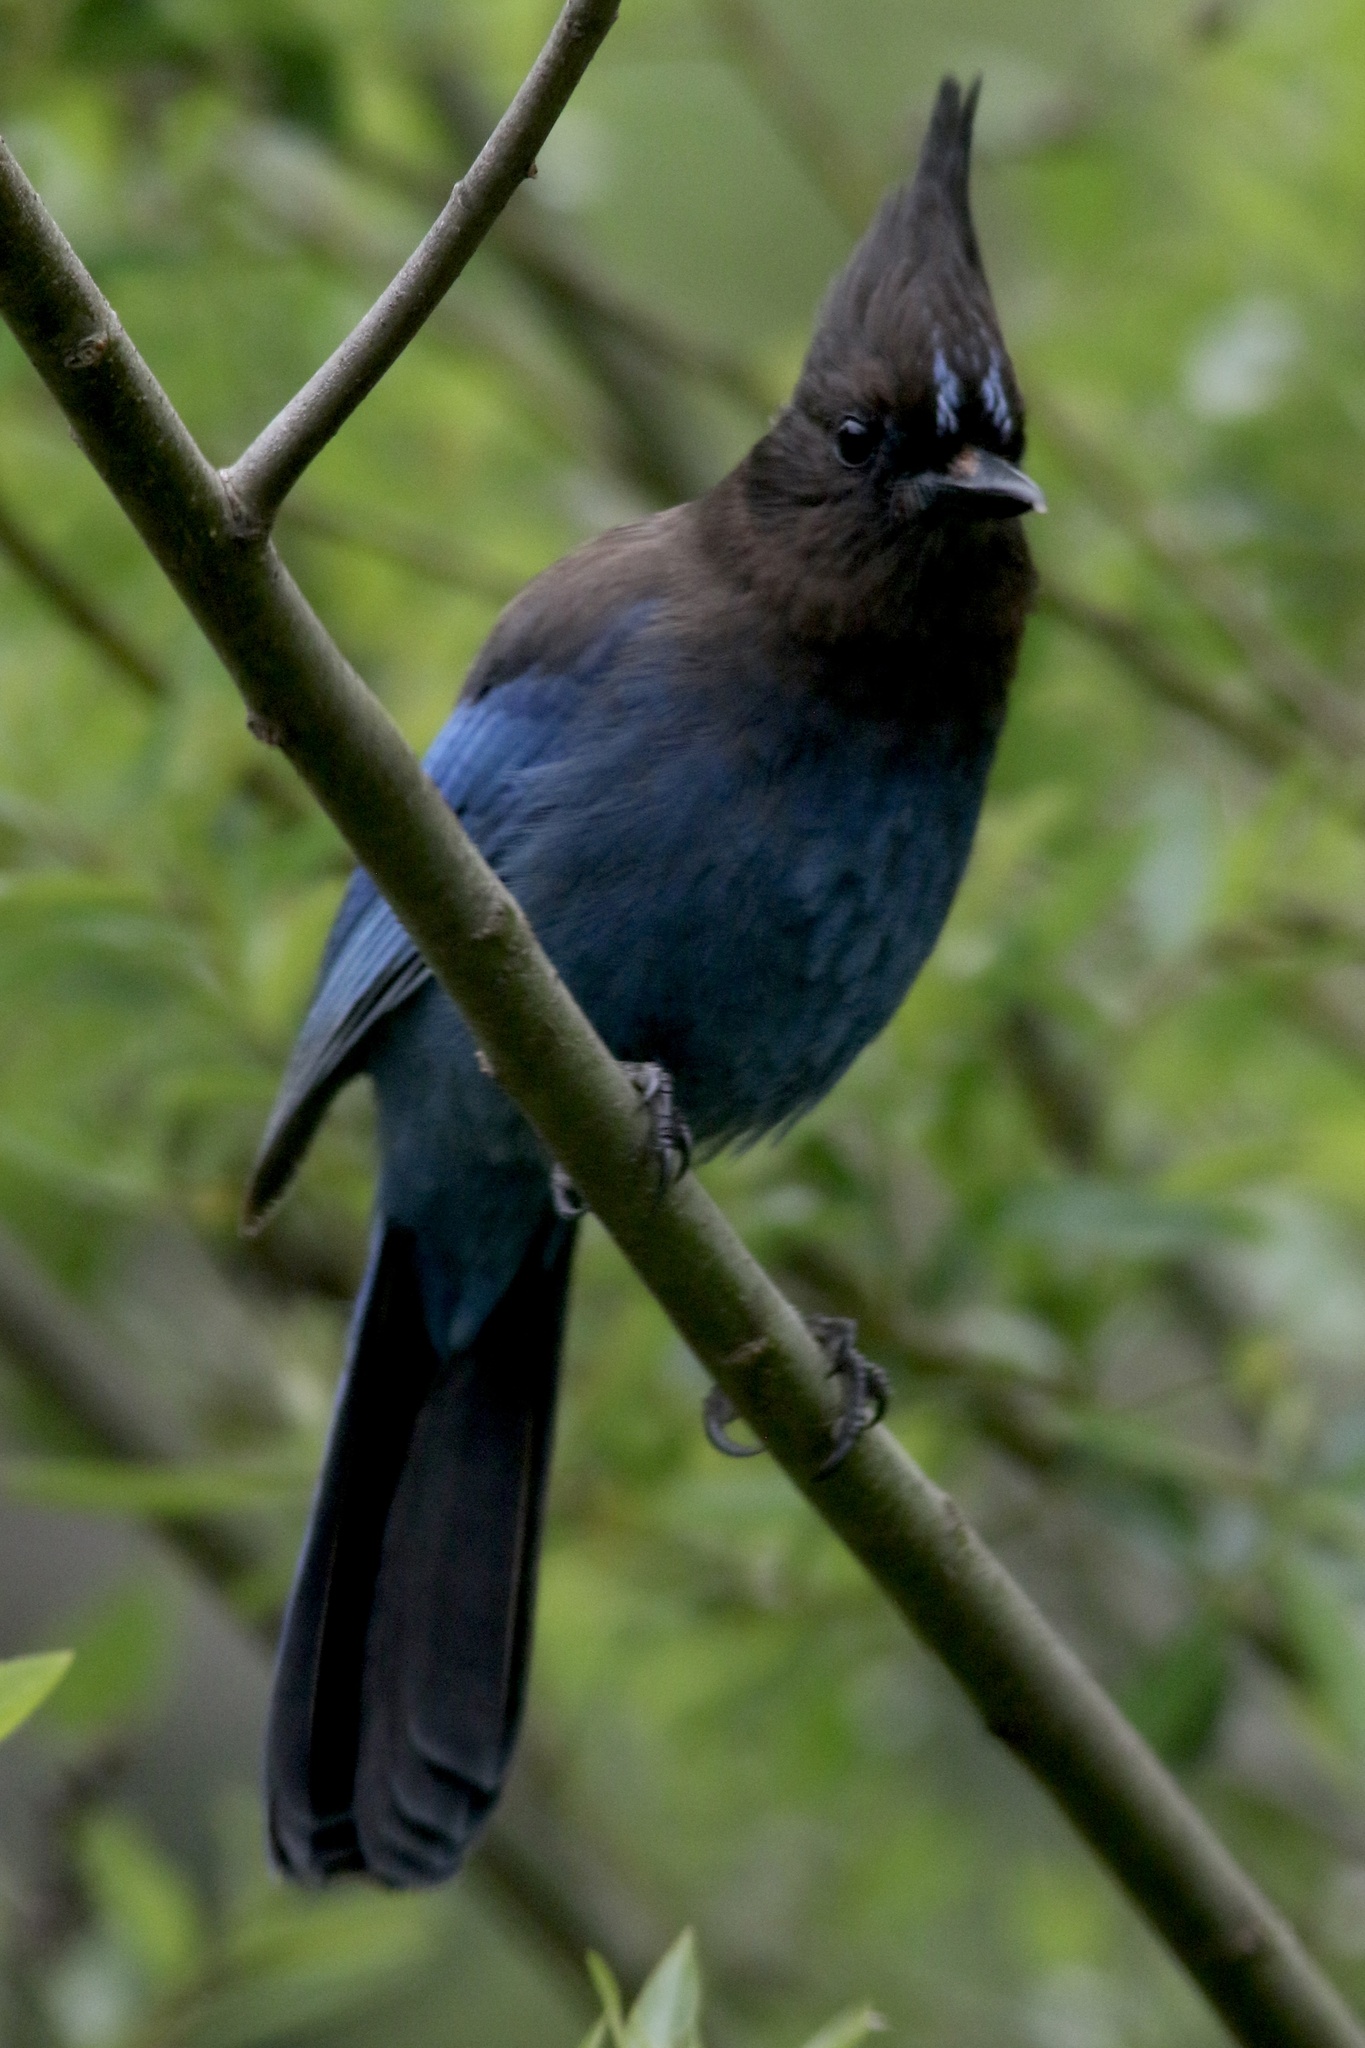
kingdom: Animalia
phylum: Chordata
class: Aves
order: Passeriformes
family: Corvidae
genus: Cyanocitta
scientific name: Cyanocitta stelleri
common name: Steller's jay
